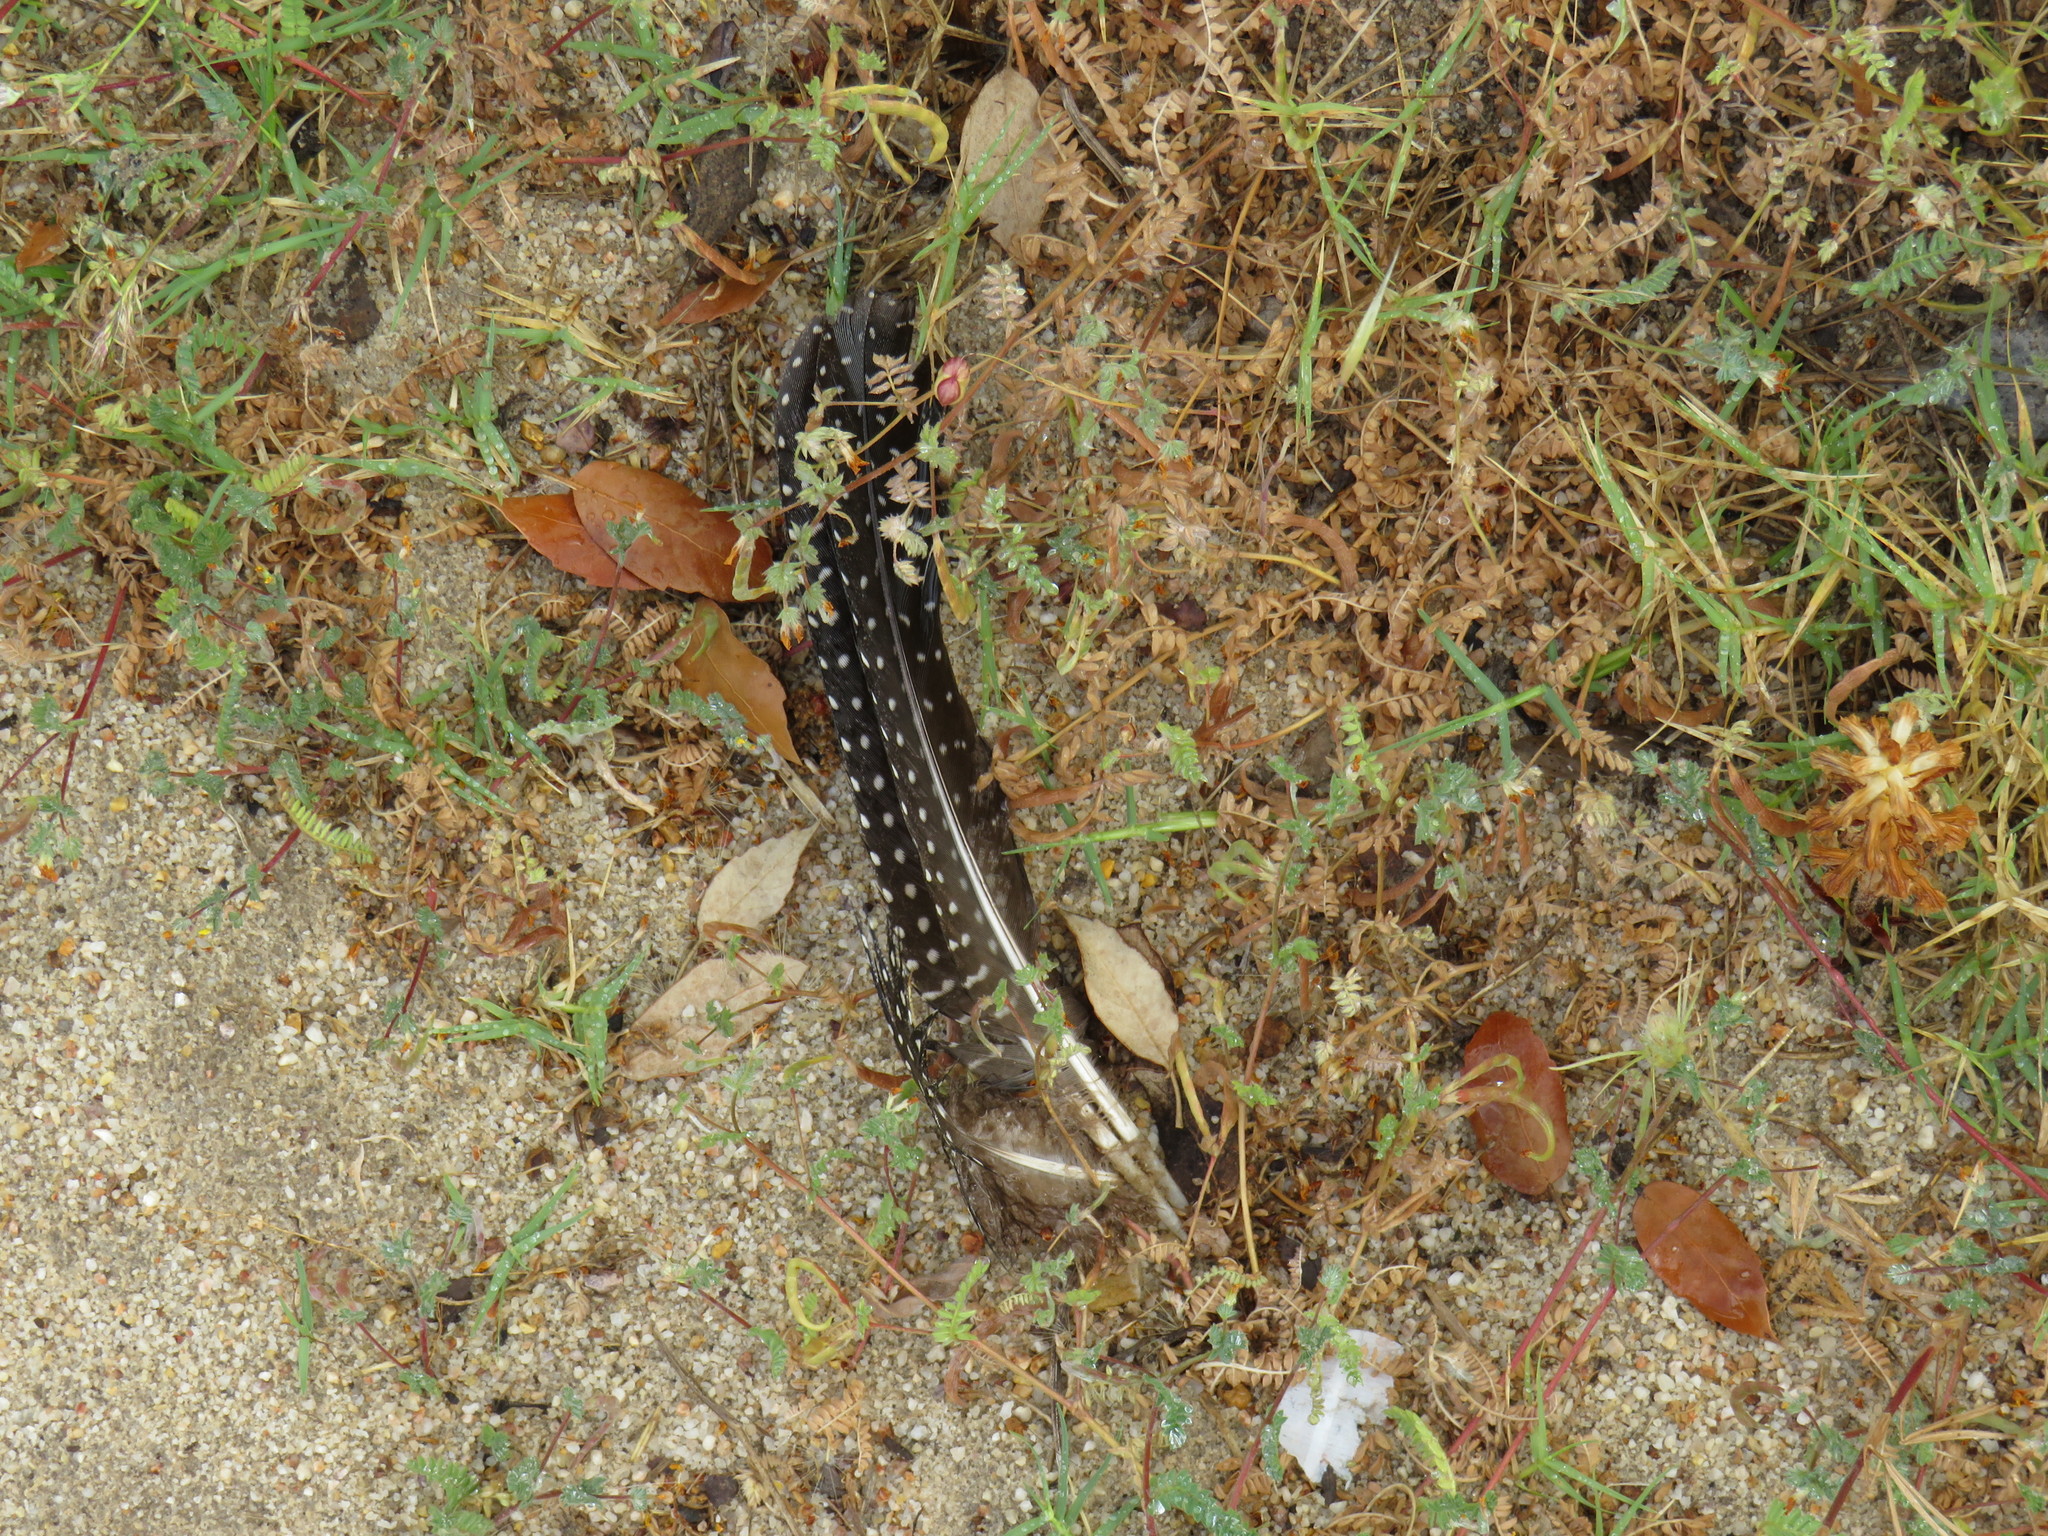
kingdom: Animalia
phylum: Chordata
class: Aves
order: Galliformes
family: Numididae
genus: Numida
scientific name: Numida meleagris
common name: Helmeted guineafowl
